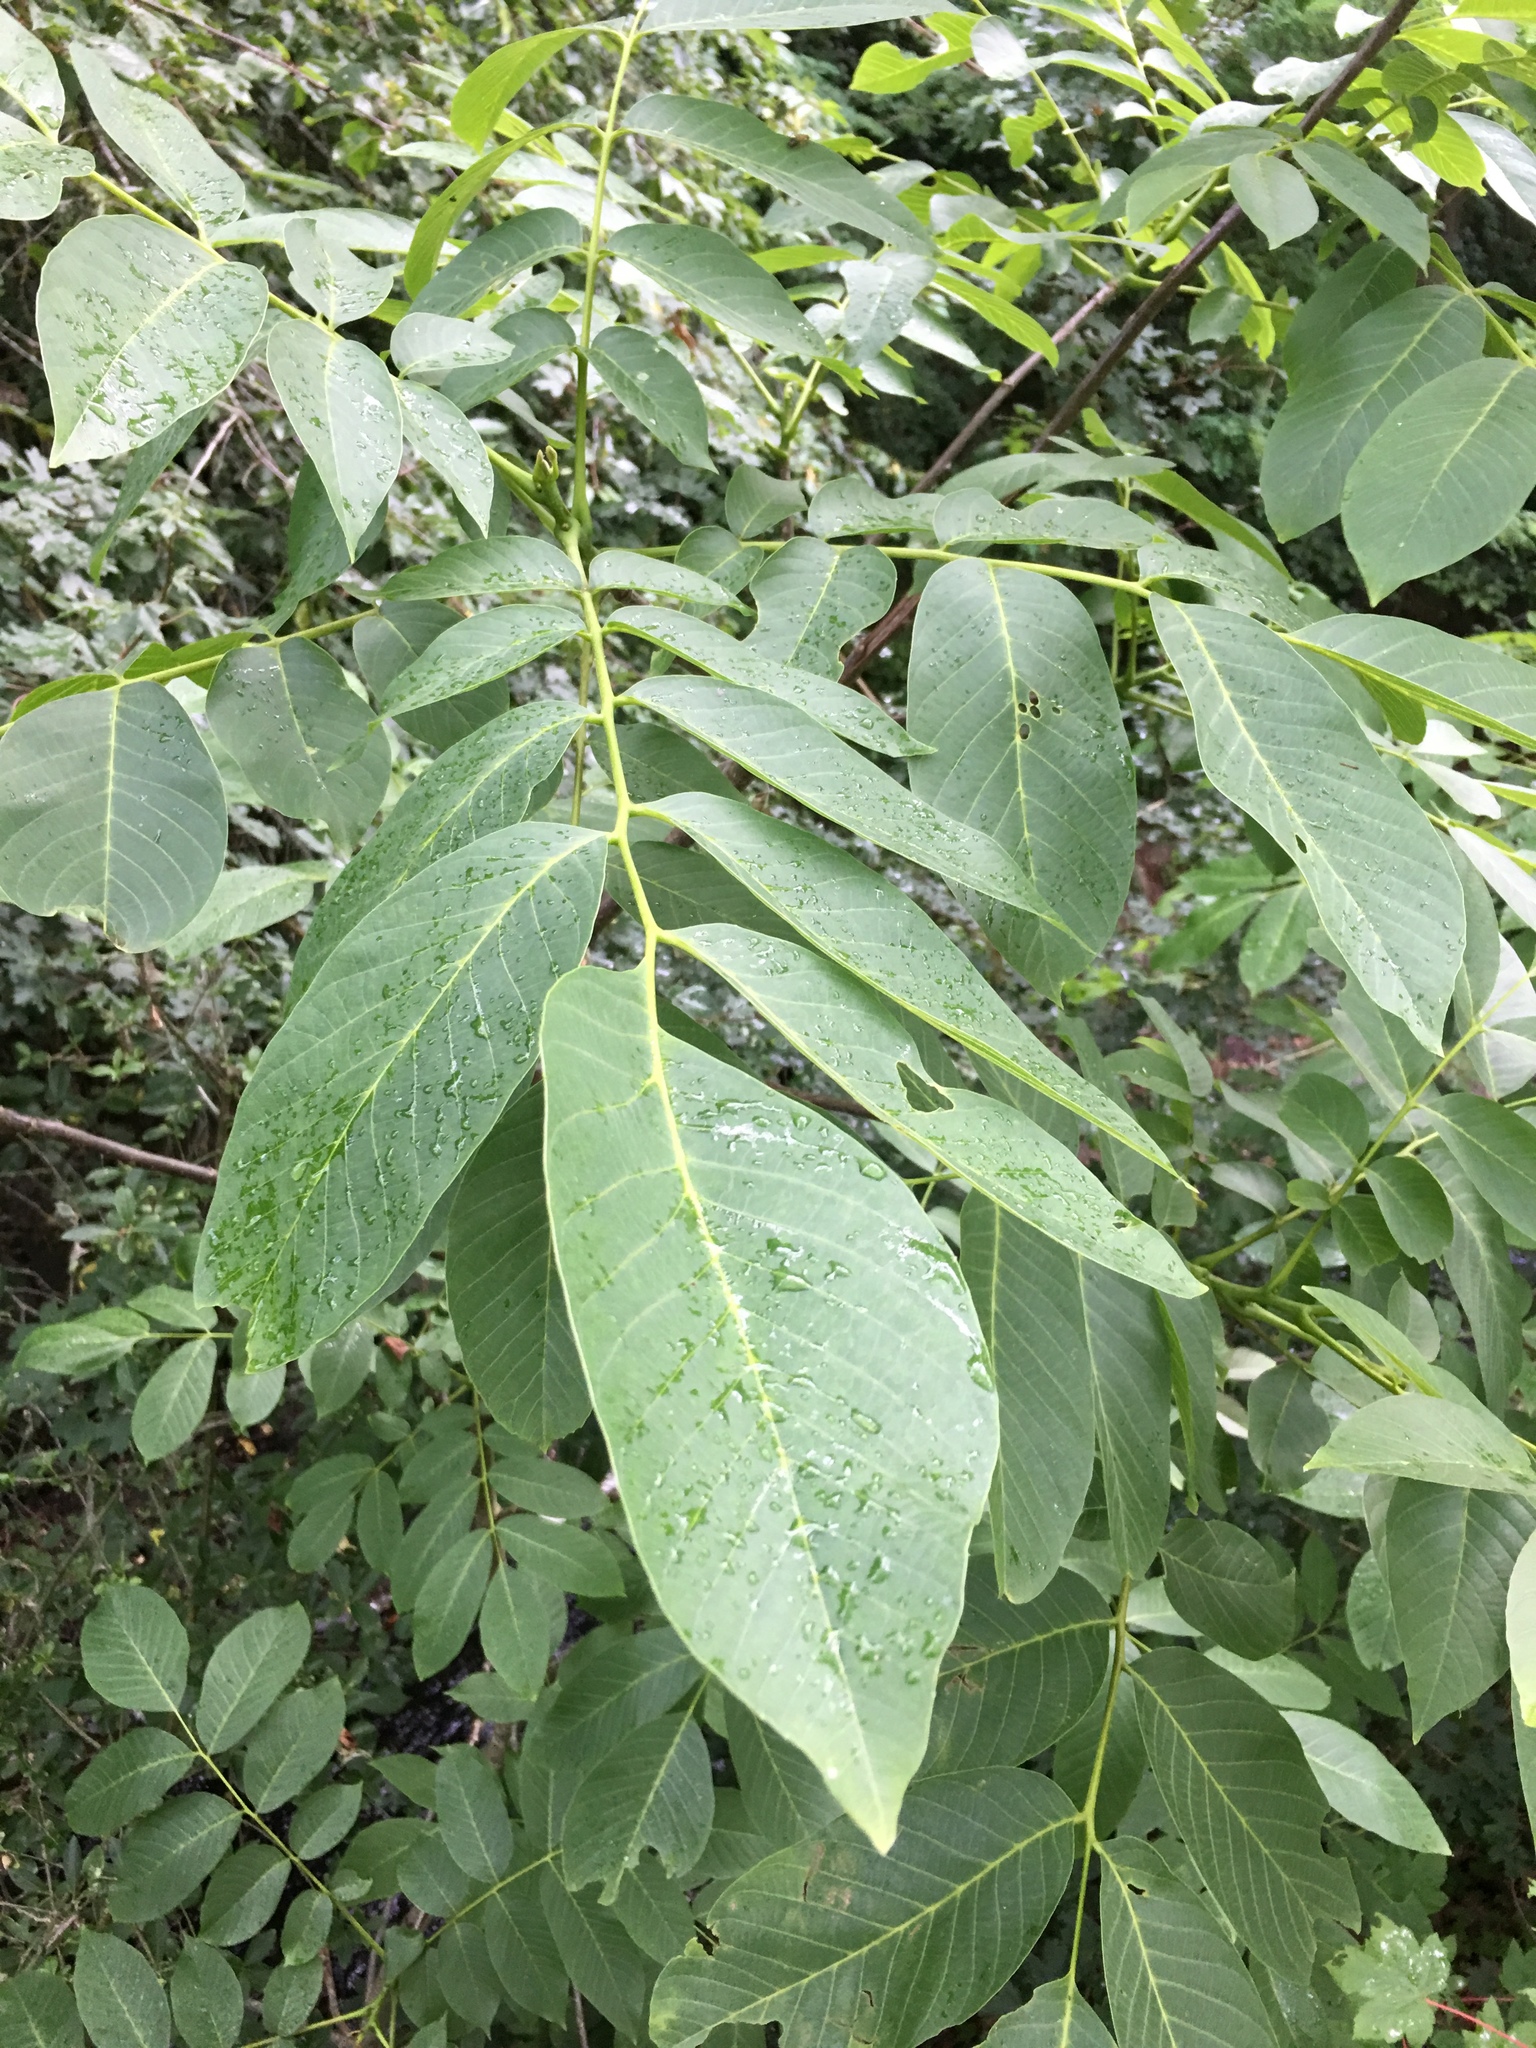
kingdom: Plantae
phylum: Tracheophyta
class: Magnoliopsida
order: Fagales
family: Juglandaceae
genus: Juglans
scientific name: Juglans regia
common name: Walnut
